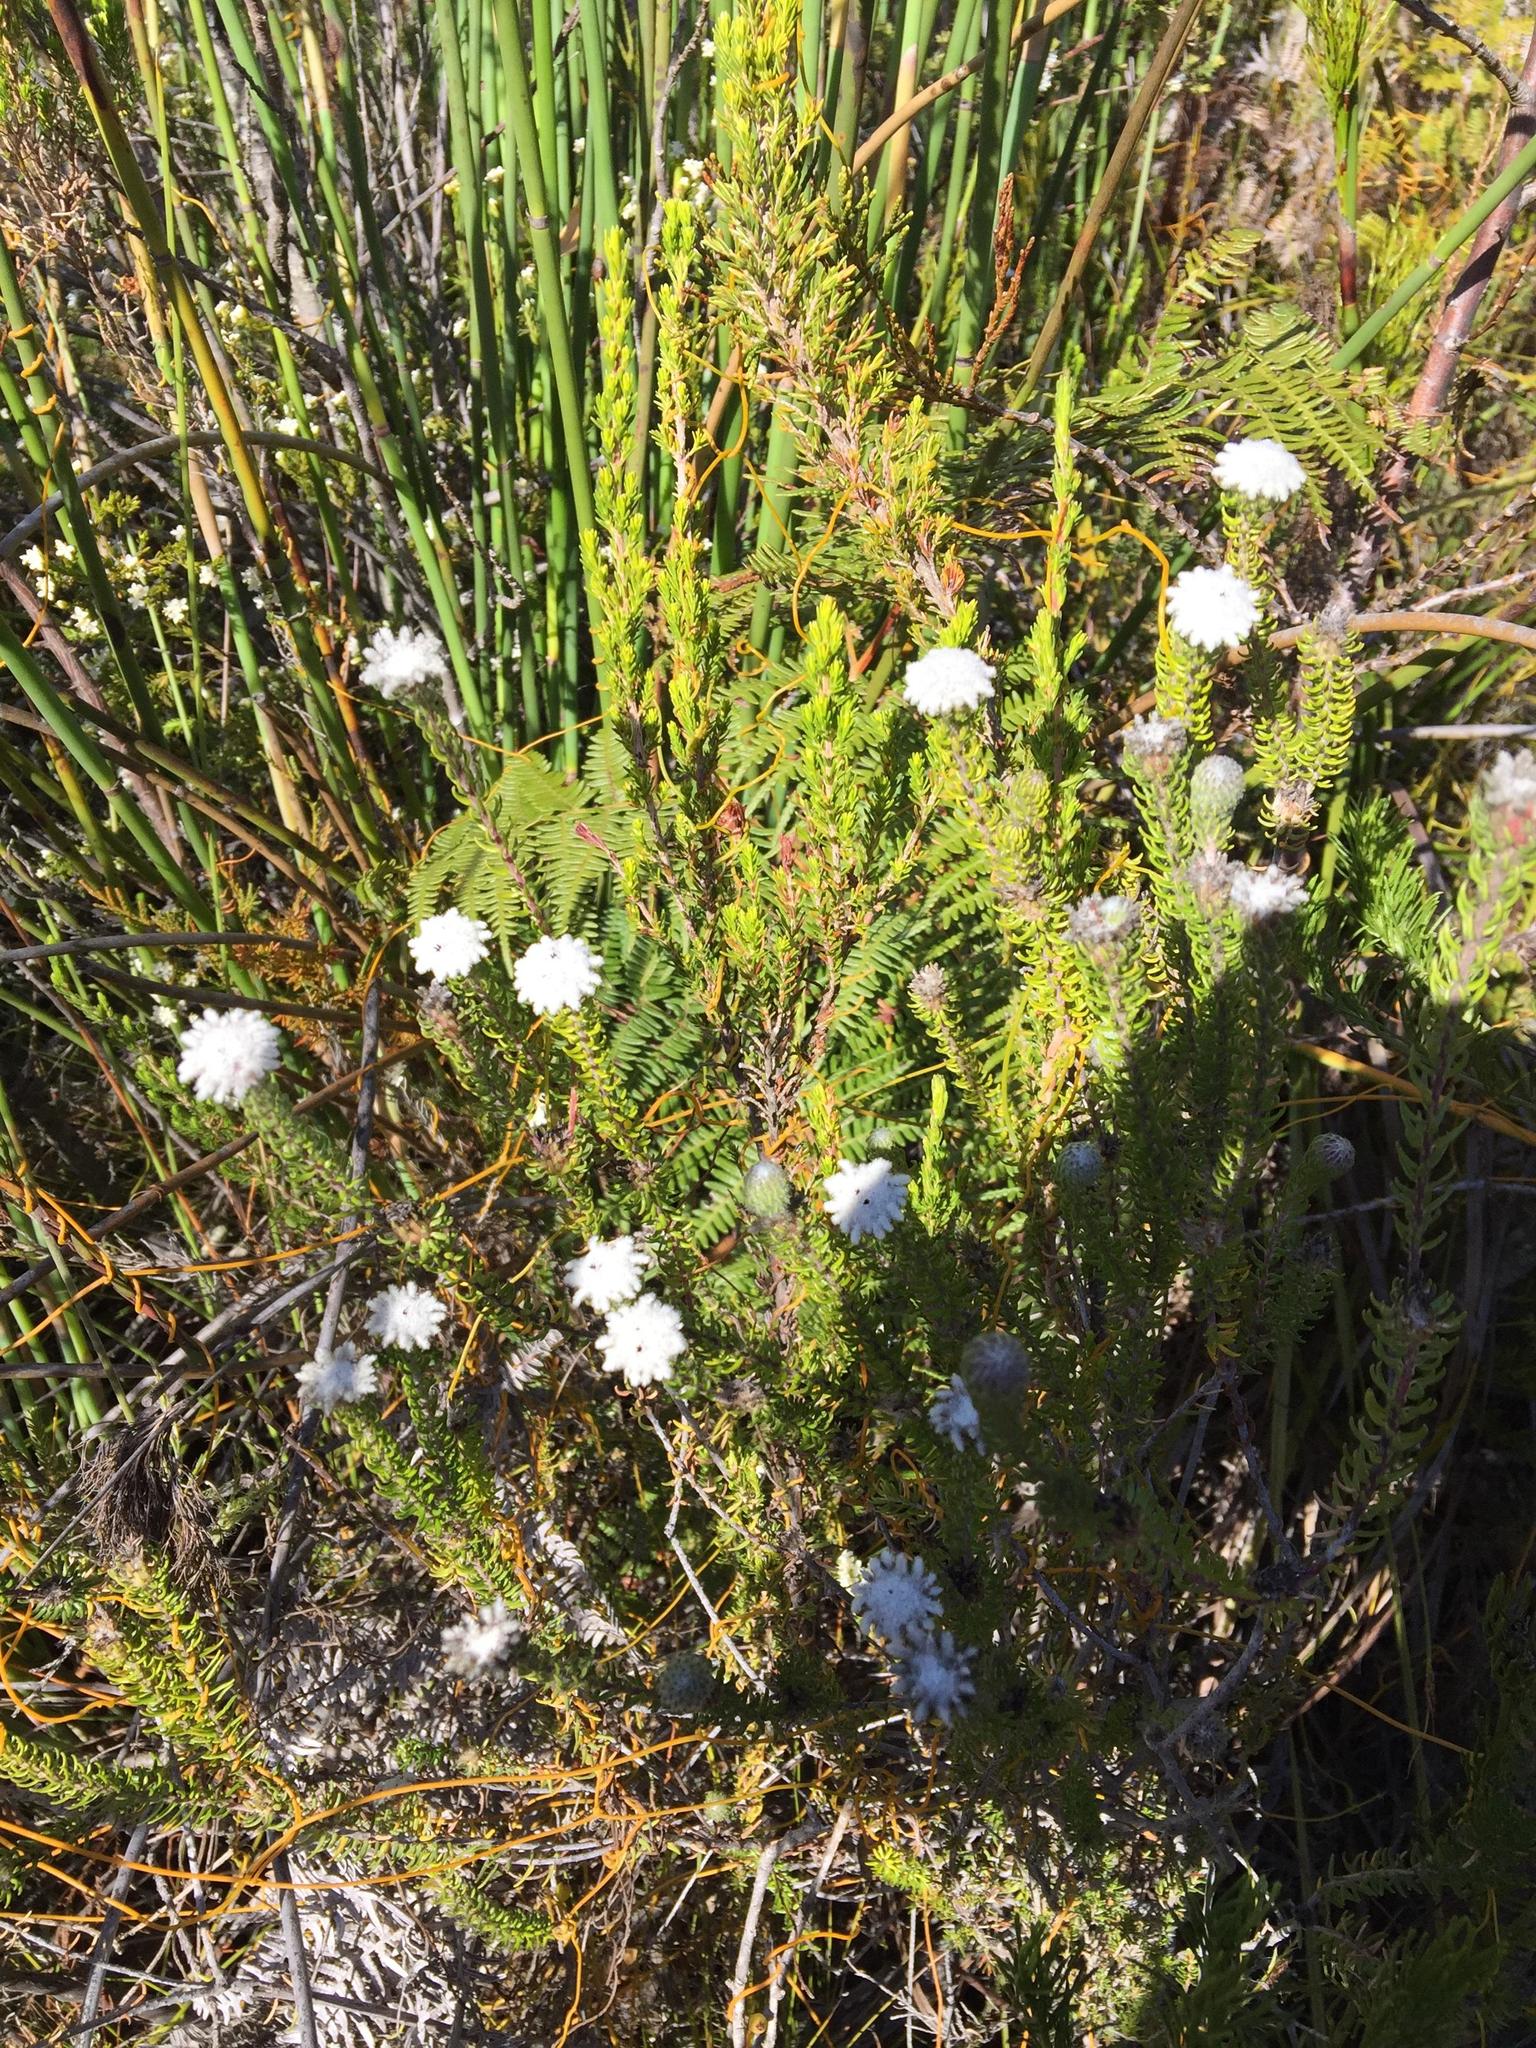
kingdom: Plantae
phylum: Tracheophyta
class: Magnoliopsida
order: Rosales
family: Rhamnaceae
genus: Phylica
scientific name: Phylica curvifolia
